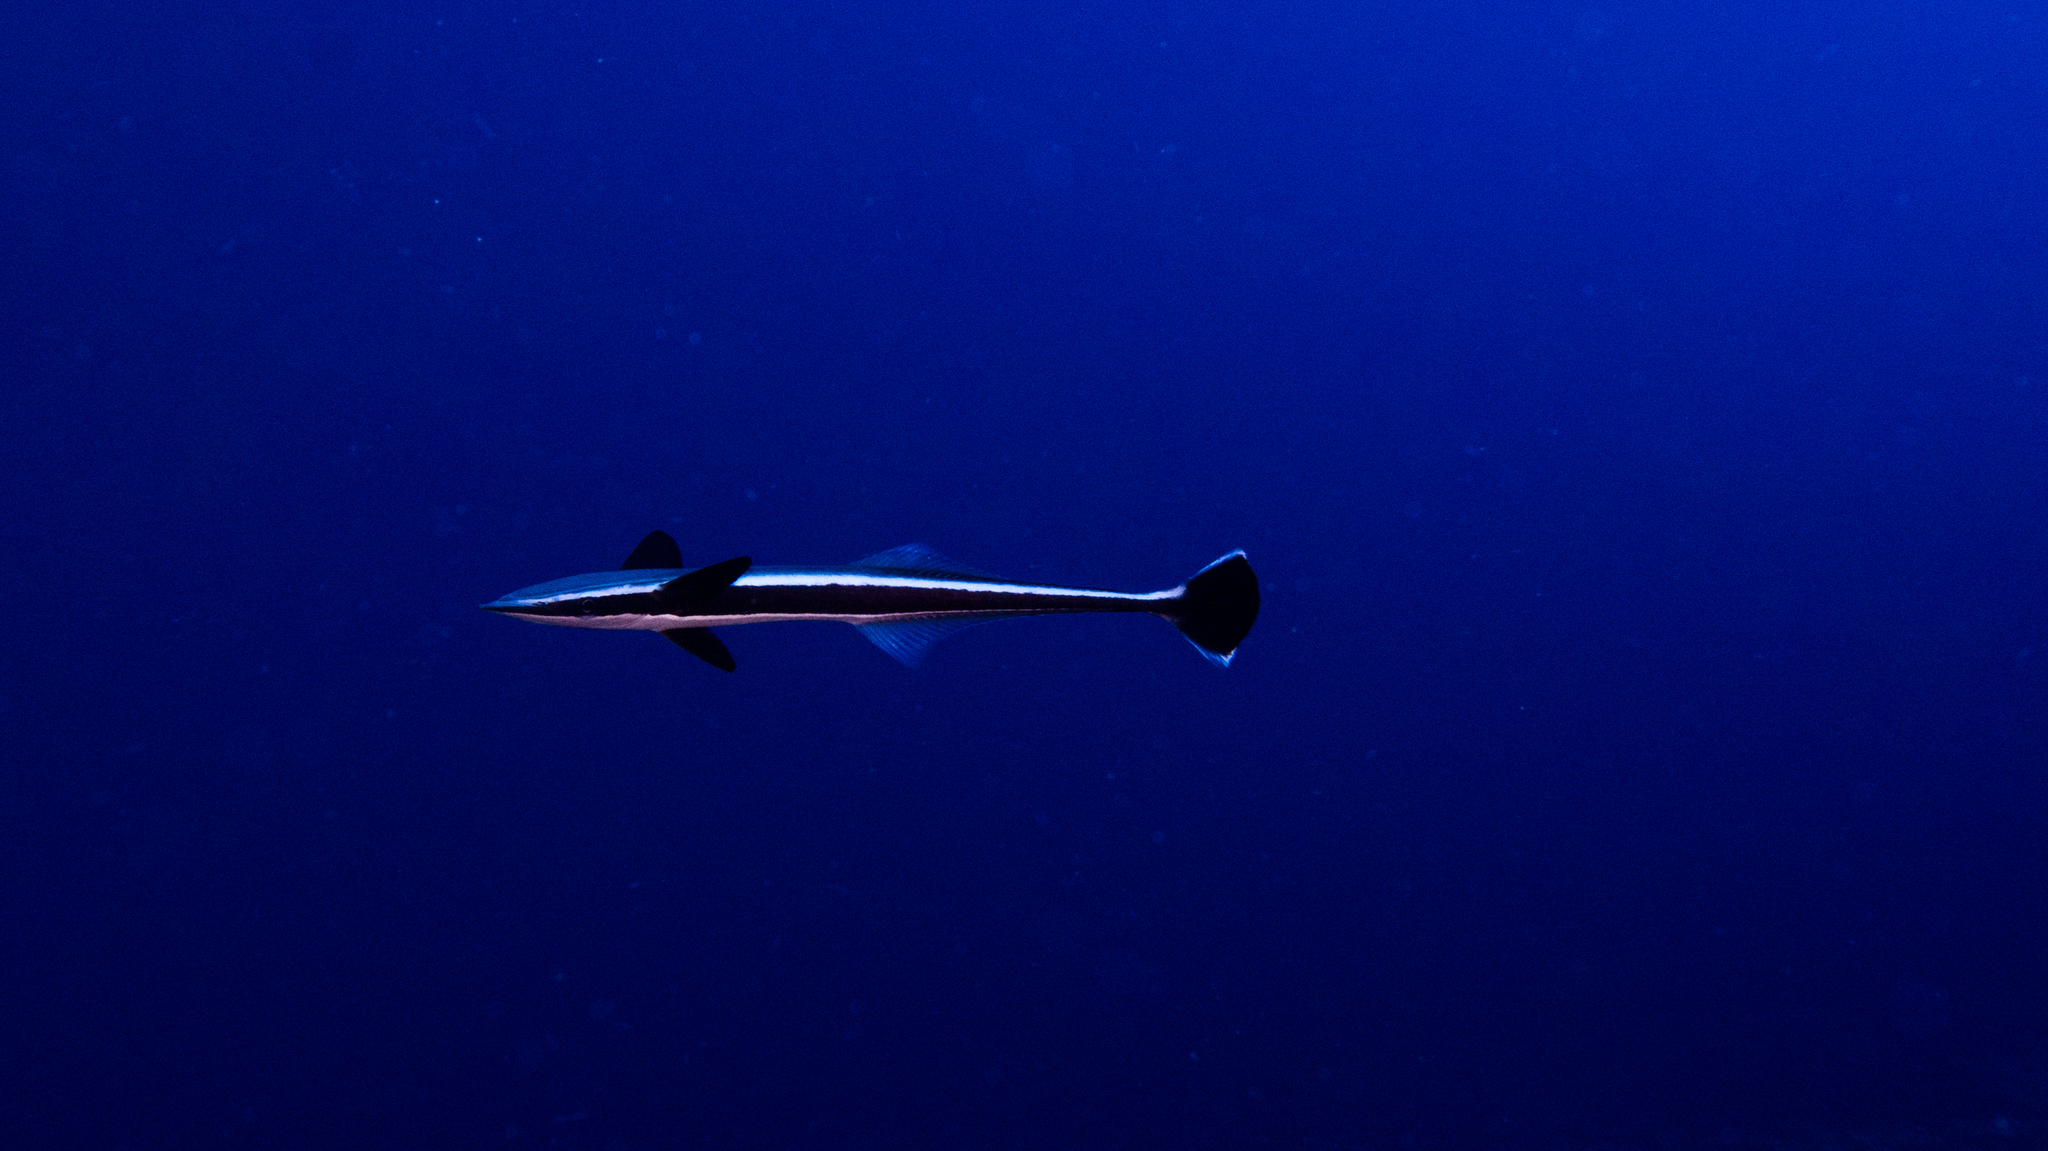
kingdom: Animalia
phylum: Chordata
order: Perciformes
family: Echeneidae
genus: Echeneis
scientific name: Echeneis naucrates
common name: Sharksucker
